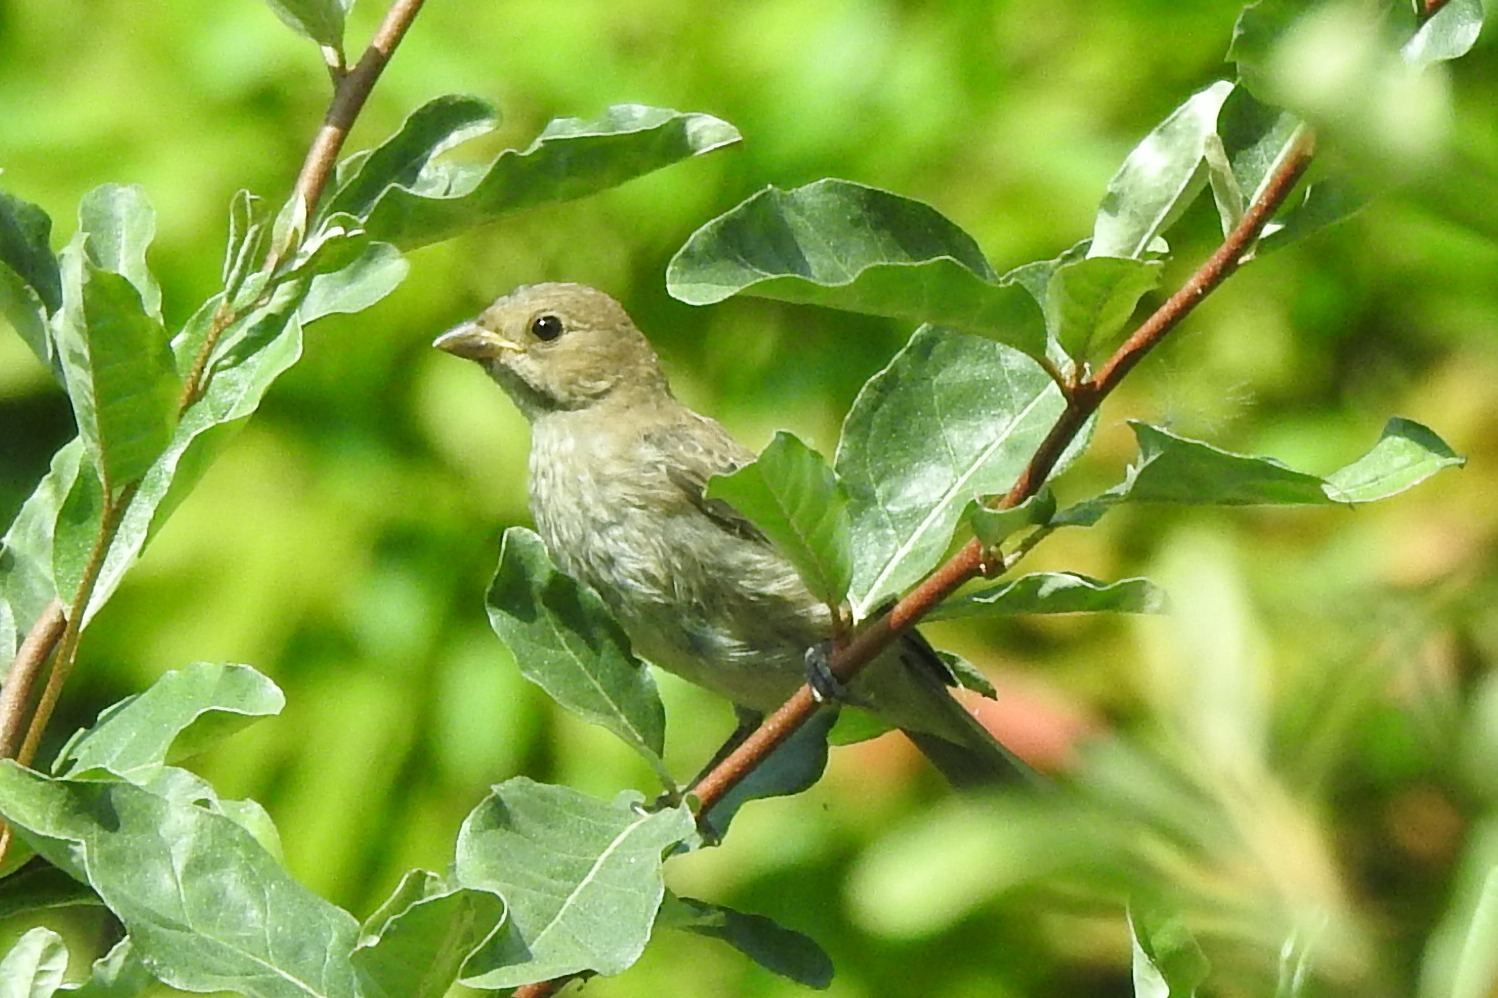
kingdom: Animalia
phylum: Chordata
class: Aves
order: Passeriformes
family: Cardinalidae
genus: Passerina
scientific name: Passerina cyanea
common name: Indigo bunting
